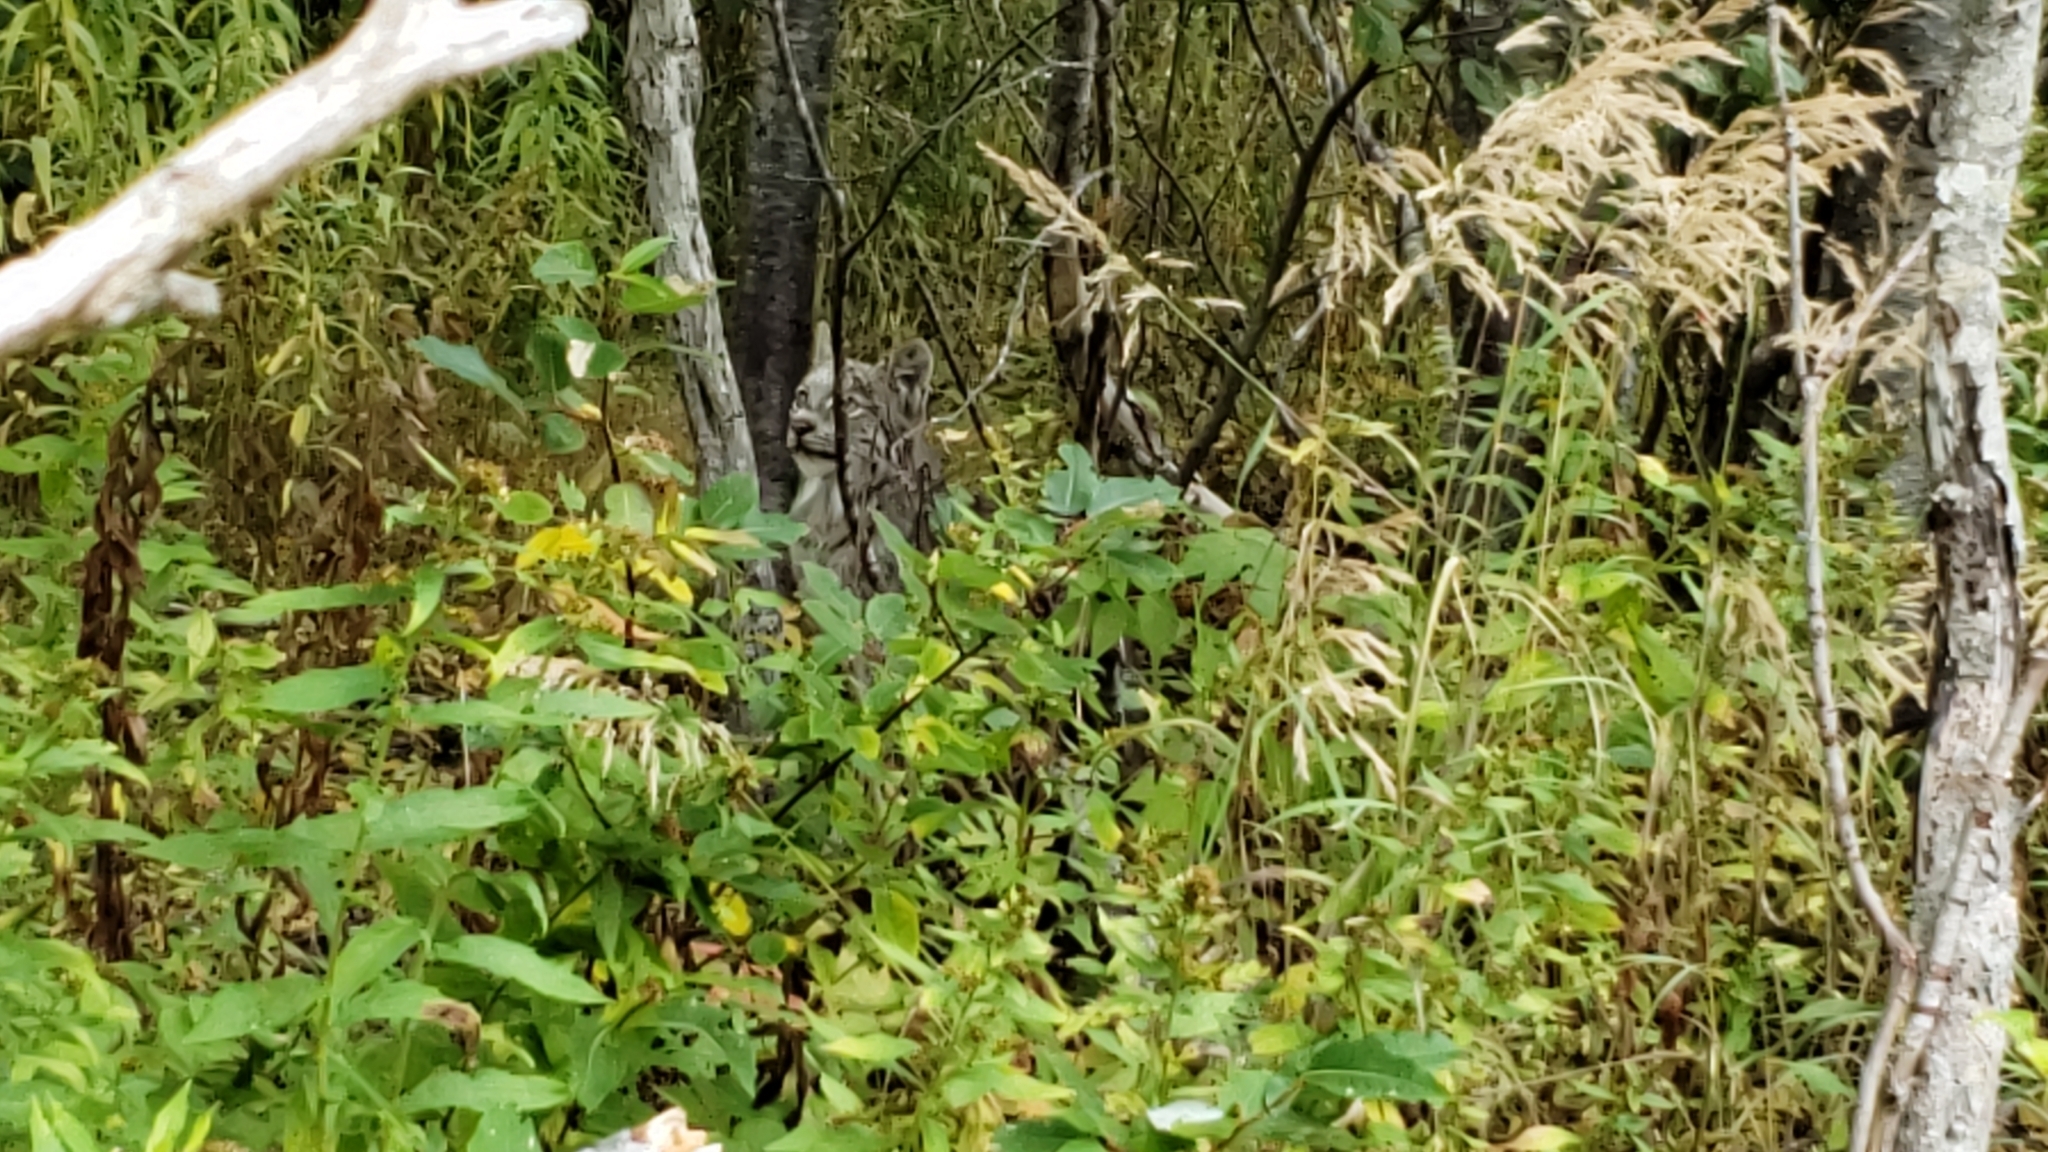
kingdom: Animalia
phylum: Chordata
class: Mammalia
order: Carnivora
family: Felidae
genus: Lynx
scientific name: Lynx canadensis
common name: Canadian lynx
